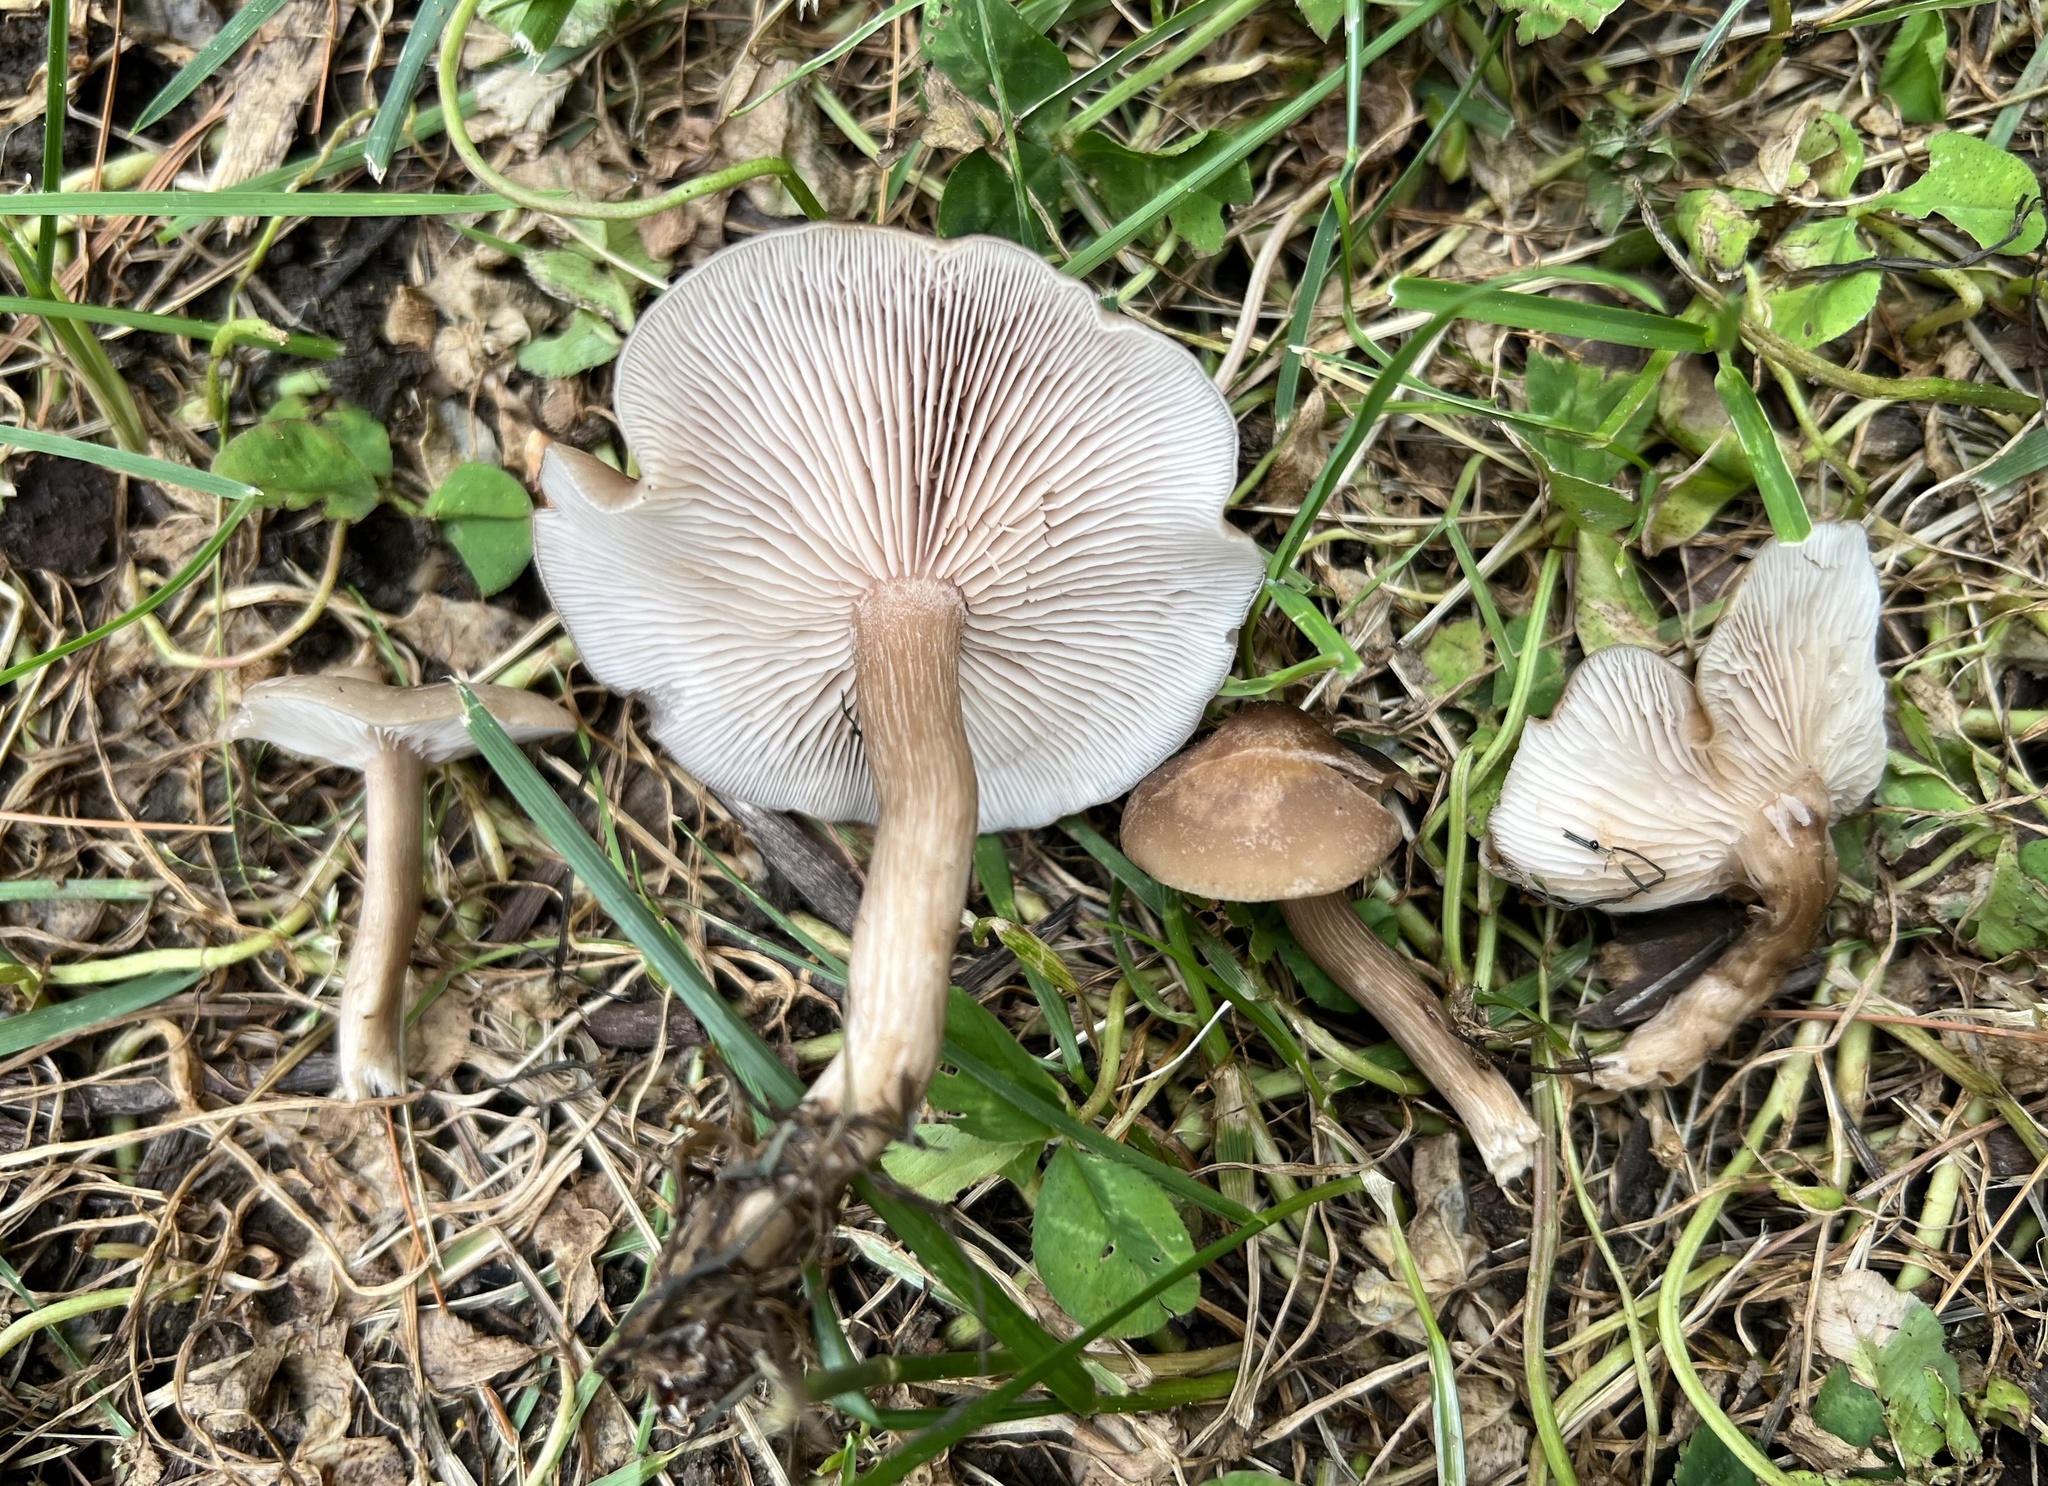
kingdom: Fungi
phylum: Basidiomycota
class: Agaricomycetes
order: Agaricales
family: Tricholomataceae
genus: Lepista
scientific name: Lepista tarda
